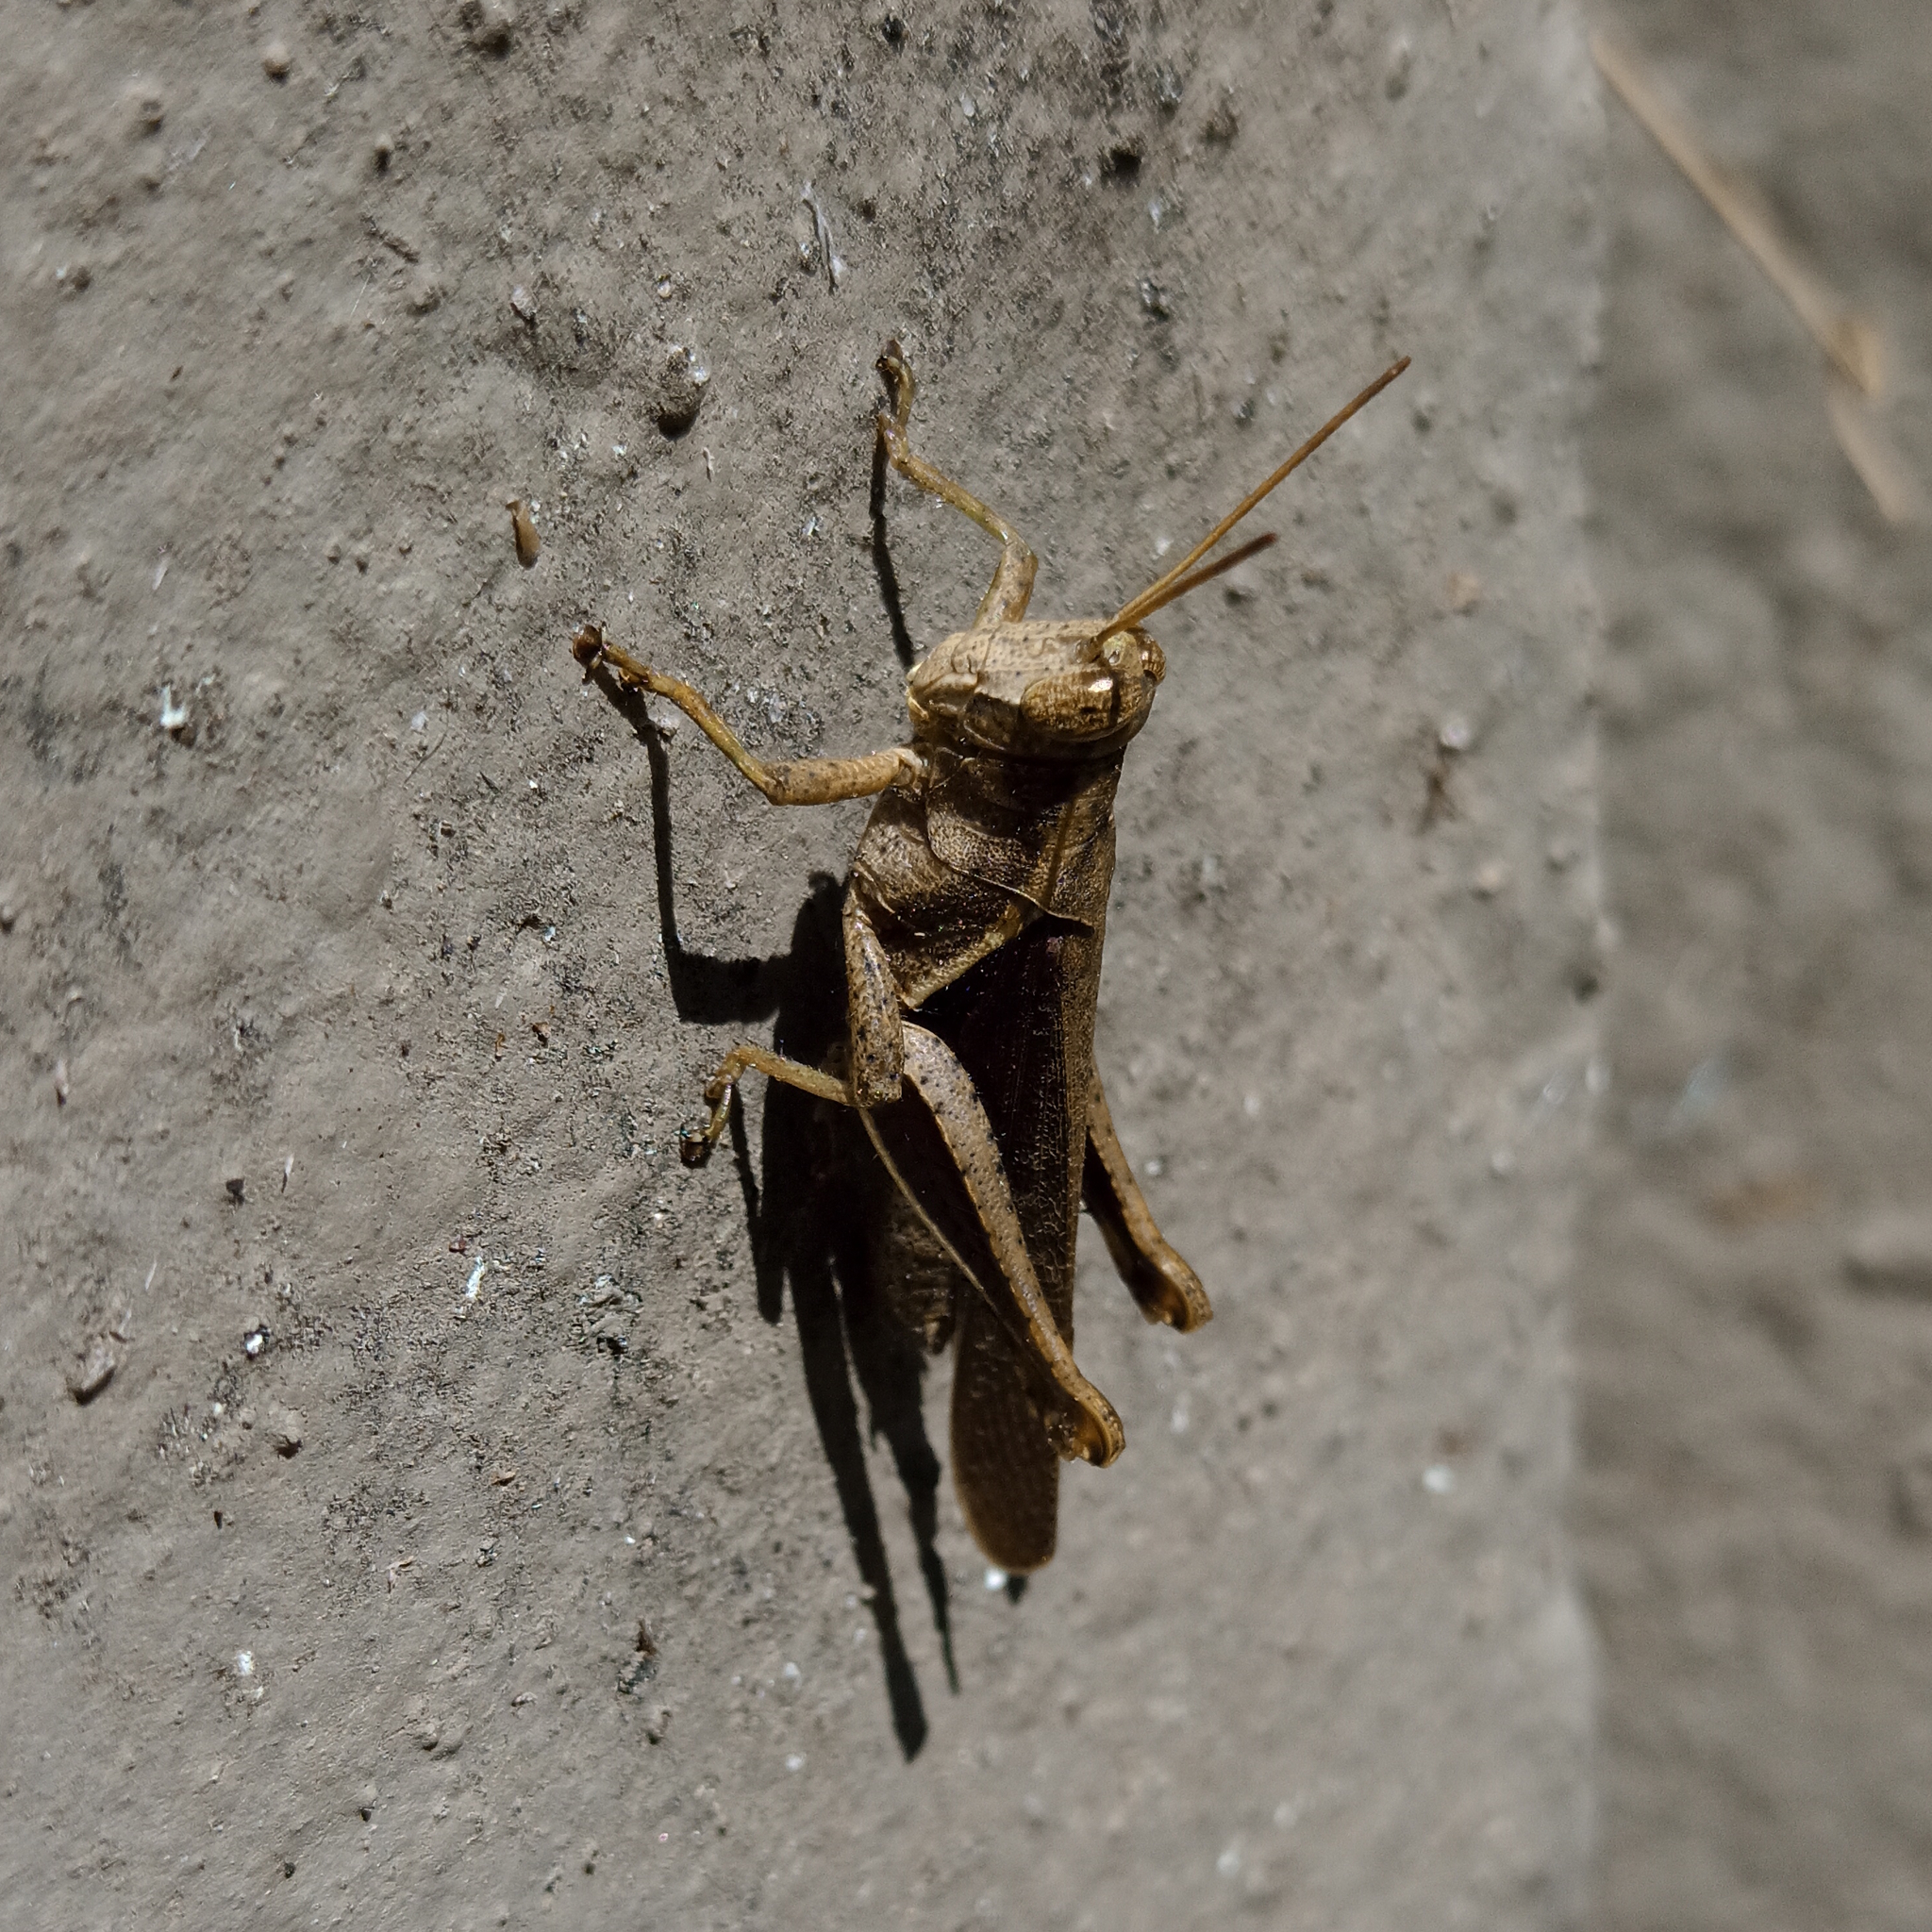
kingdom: Animalia
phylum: Arthropoda
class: Insecta
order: Orthoptera
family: Acrididae
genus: Abracris
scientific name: Abracris flavolineata
